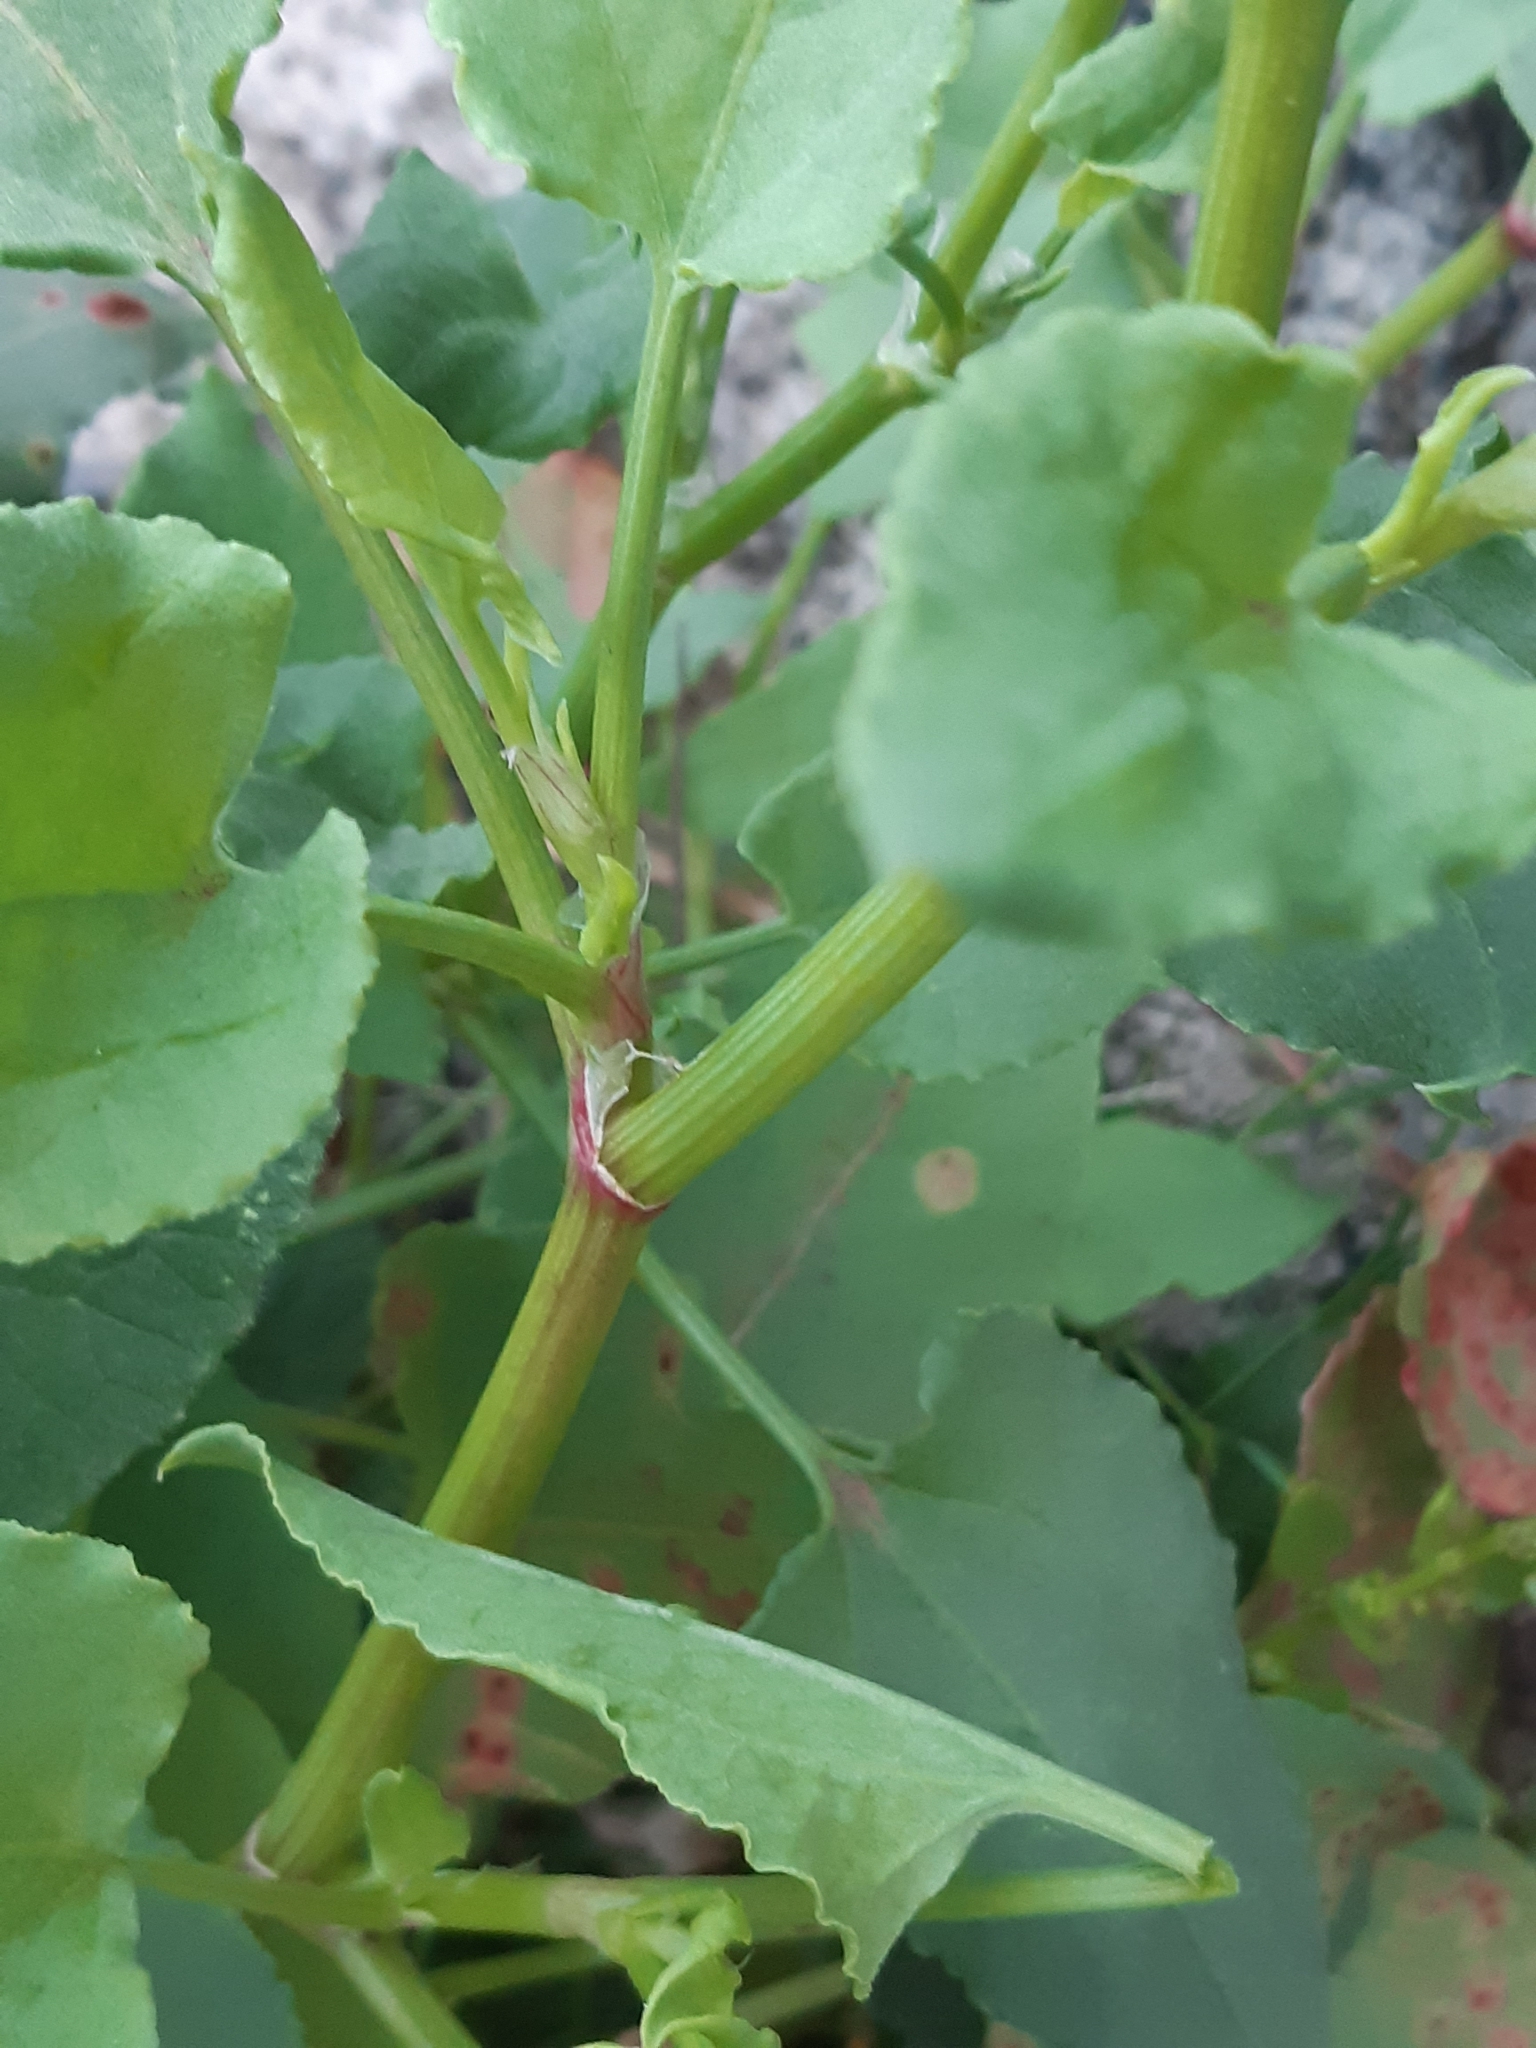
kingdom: Plantae
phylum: Tracheophyta
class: Magnoliopsida
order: Caryophyllales
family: Polygonaceae
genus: Rumex
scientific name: Rumex vesicarius
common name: Bladder dock
